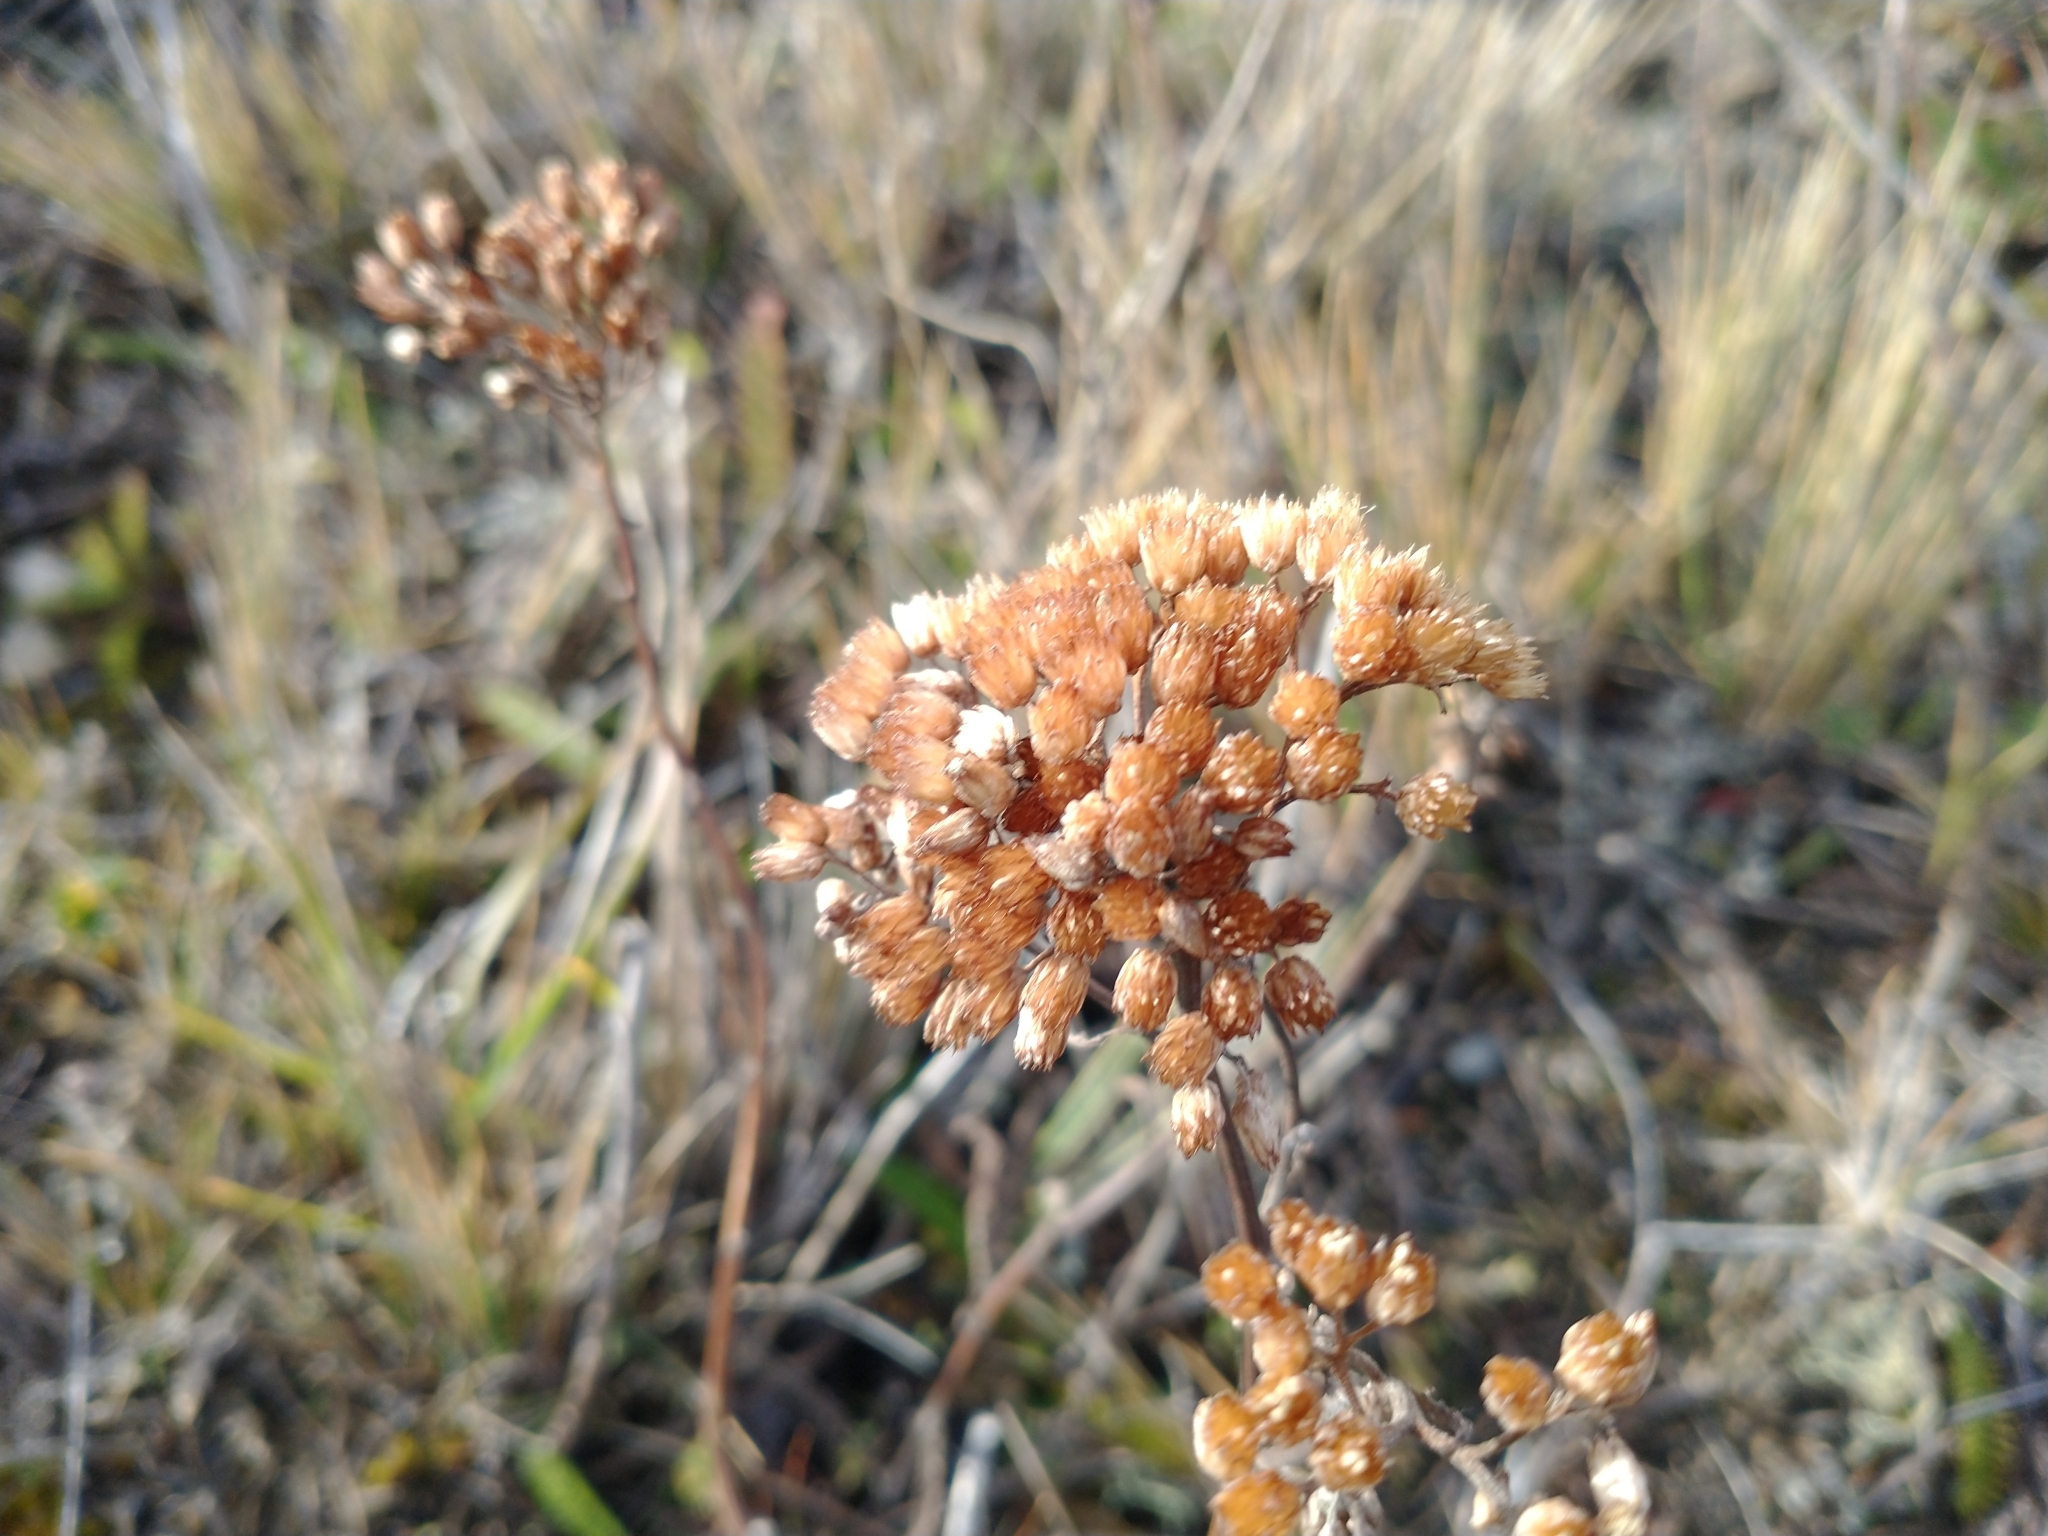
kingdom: Plantae
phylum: Tracheophyta
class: Magnoliopsida
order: Asterales
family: Asteraceae
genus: Achillea
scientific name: Achillea millefolium
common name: Yarrow
